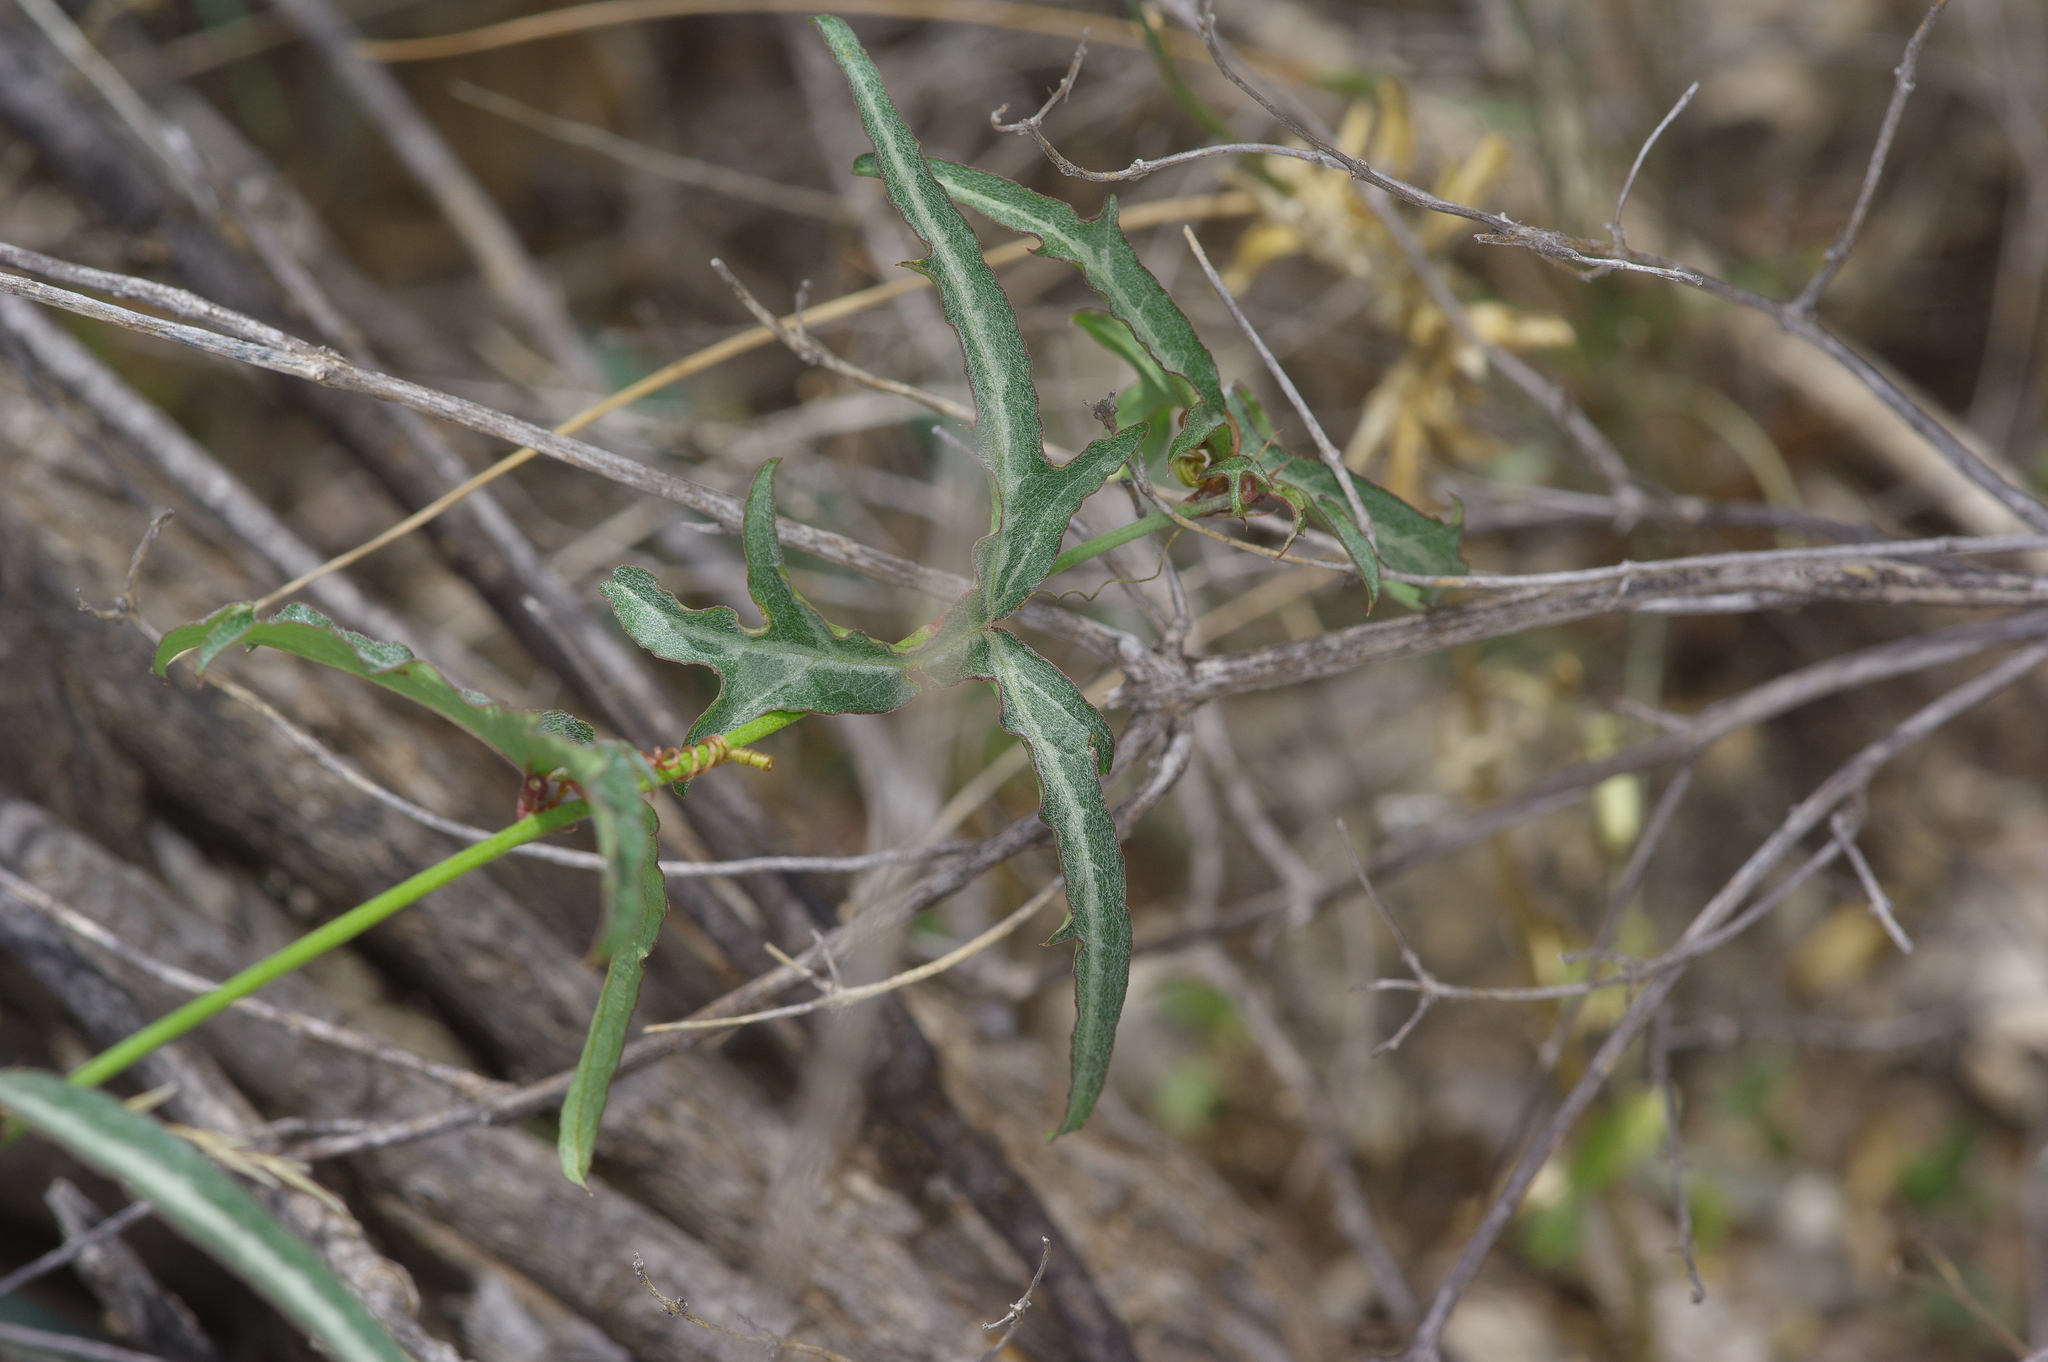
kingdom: Plantae
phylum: Tracheophyta
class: Magnoliopsida
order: Malpighiales
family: Passifloraceae
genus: Passiflora
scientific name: Passiflora tenuiloba
